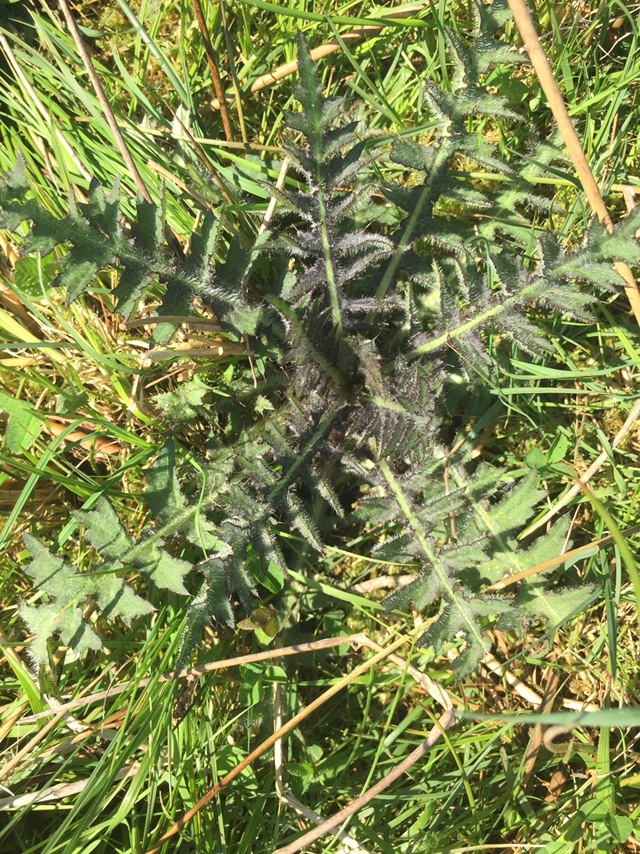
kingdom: Plantae
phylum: Tracheophyta
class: Magnoliopsida
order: Asterales
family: Asteraceae
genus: Cirsium
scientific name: Cirsium palustre
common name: Marsh thistle
